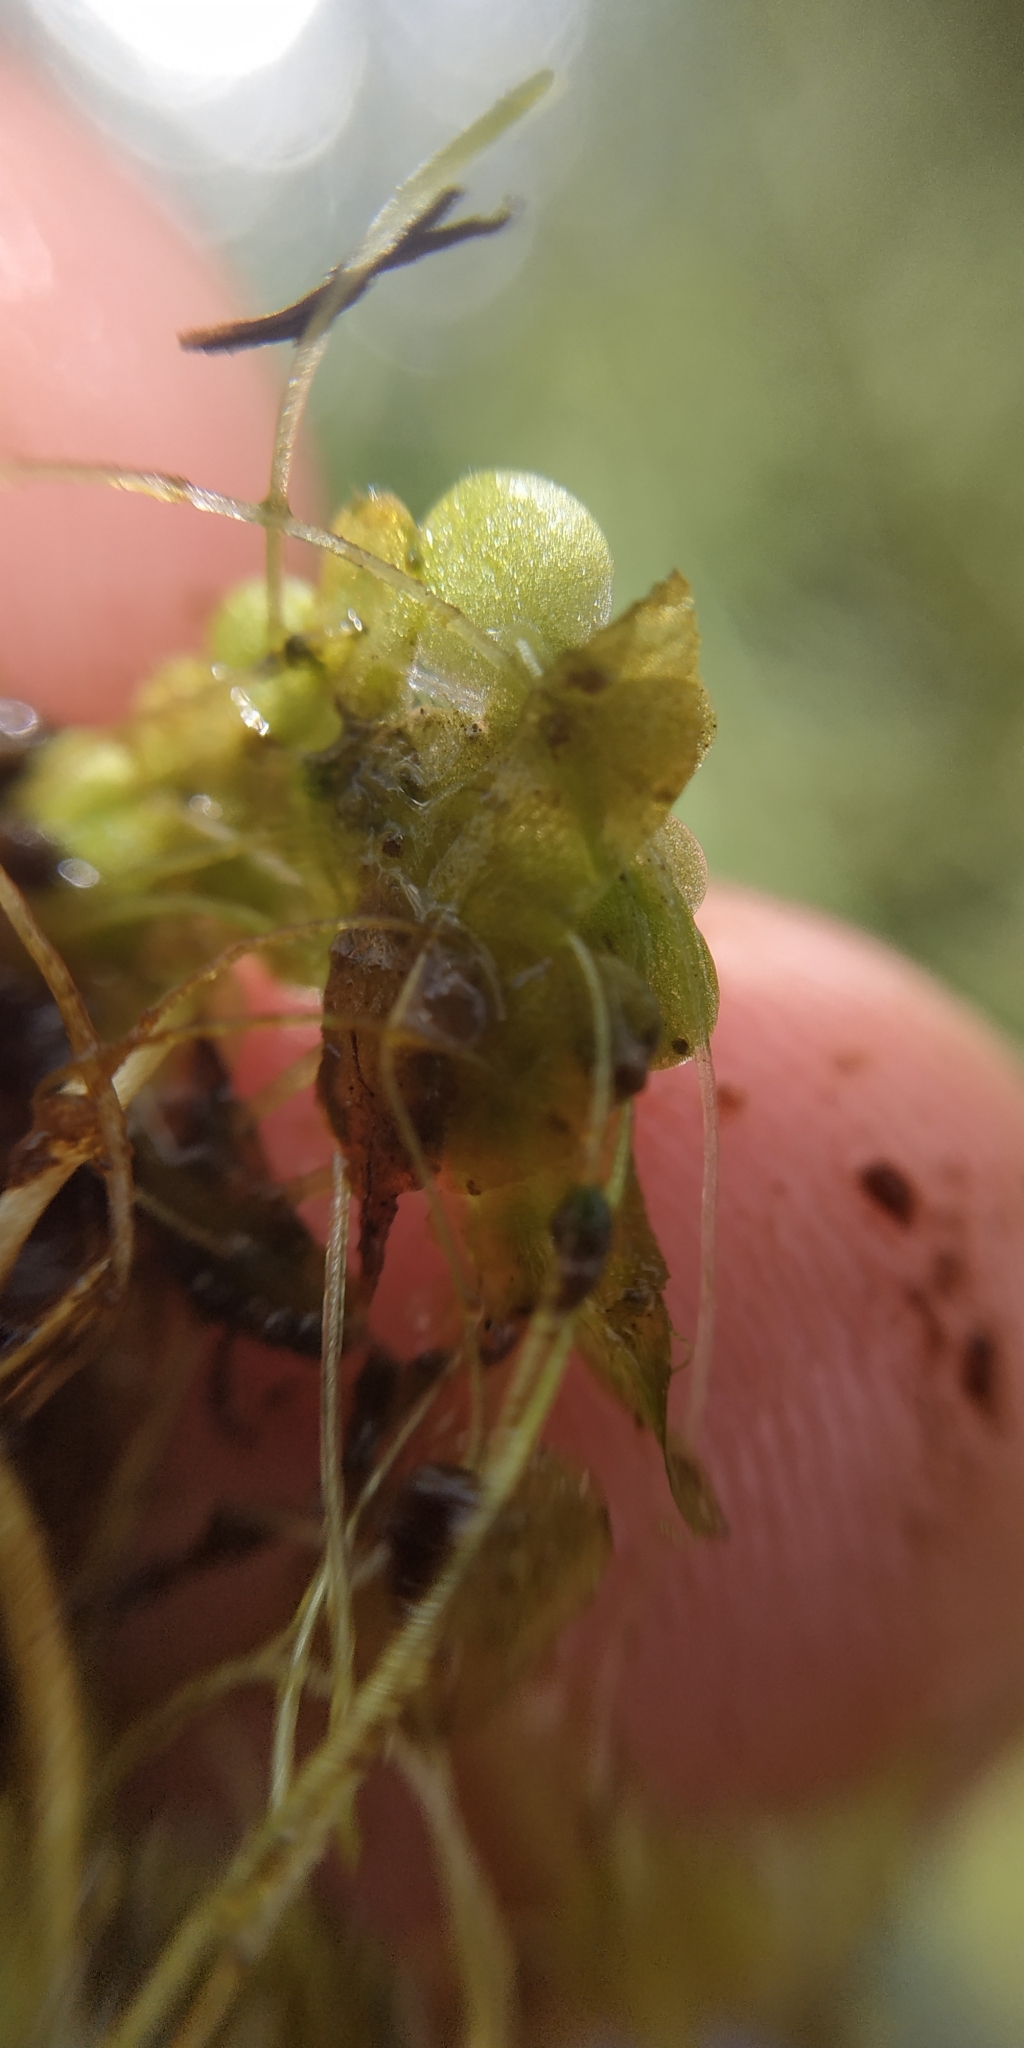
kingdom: Plantae
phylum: Tracheophyta
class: Liliopsida
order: Alismatales
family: Araceae
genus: Lemna
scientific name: Lemna turionifera
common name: Perennial duckweed
